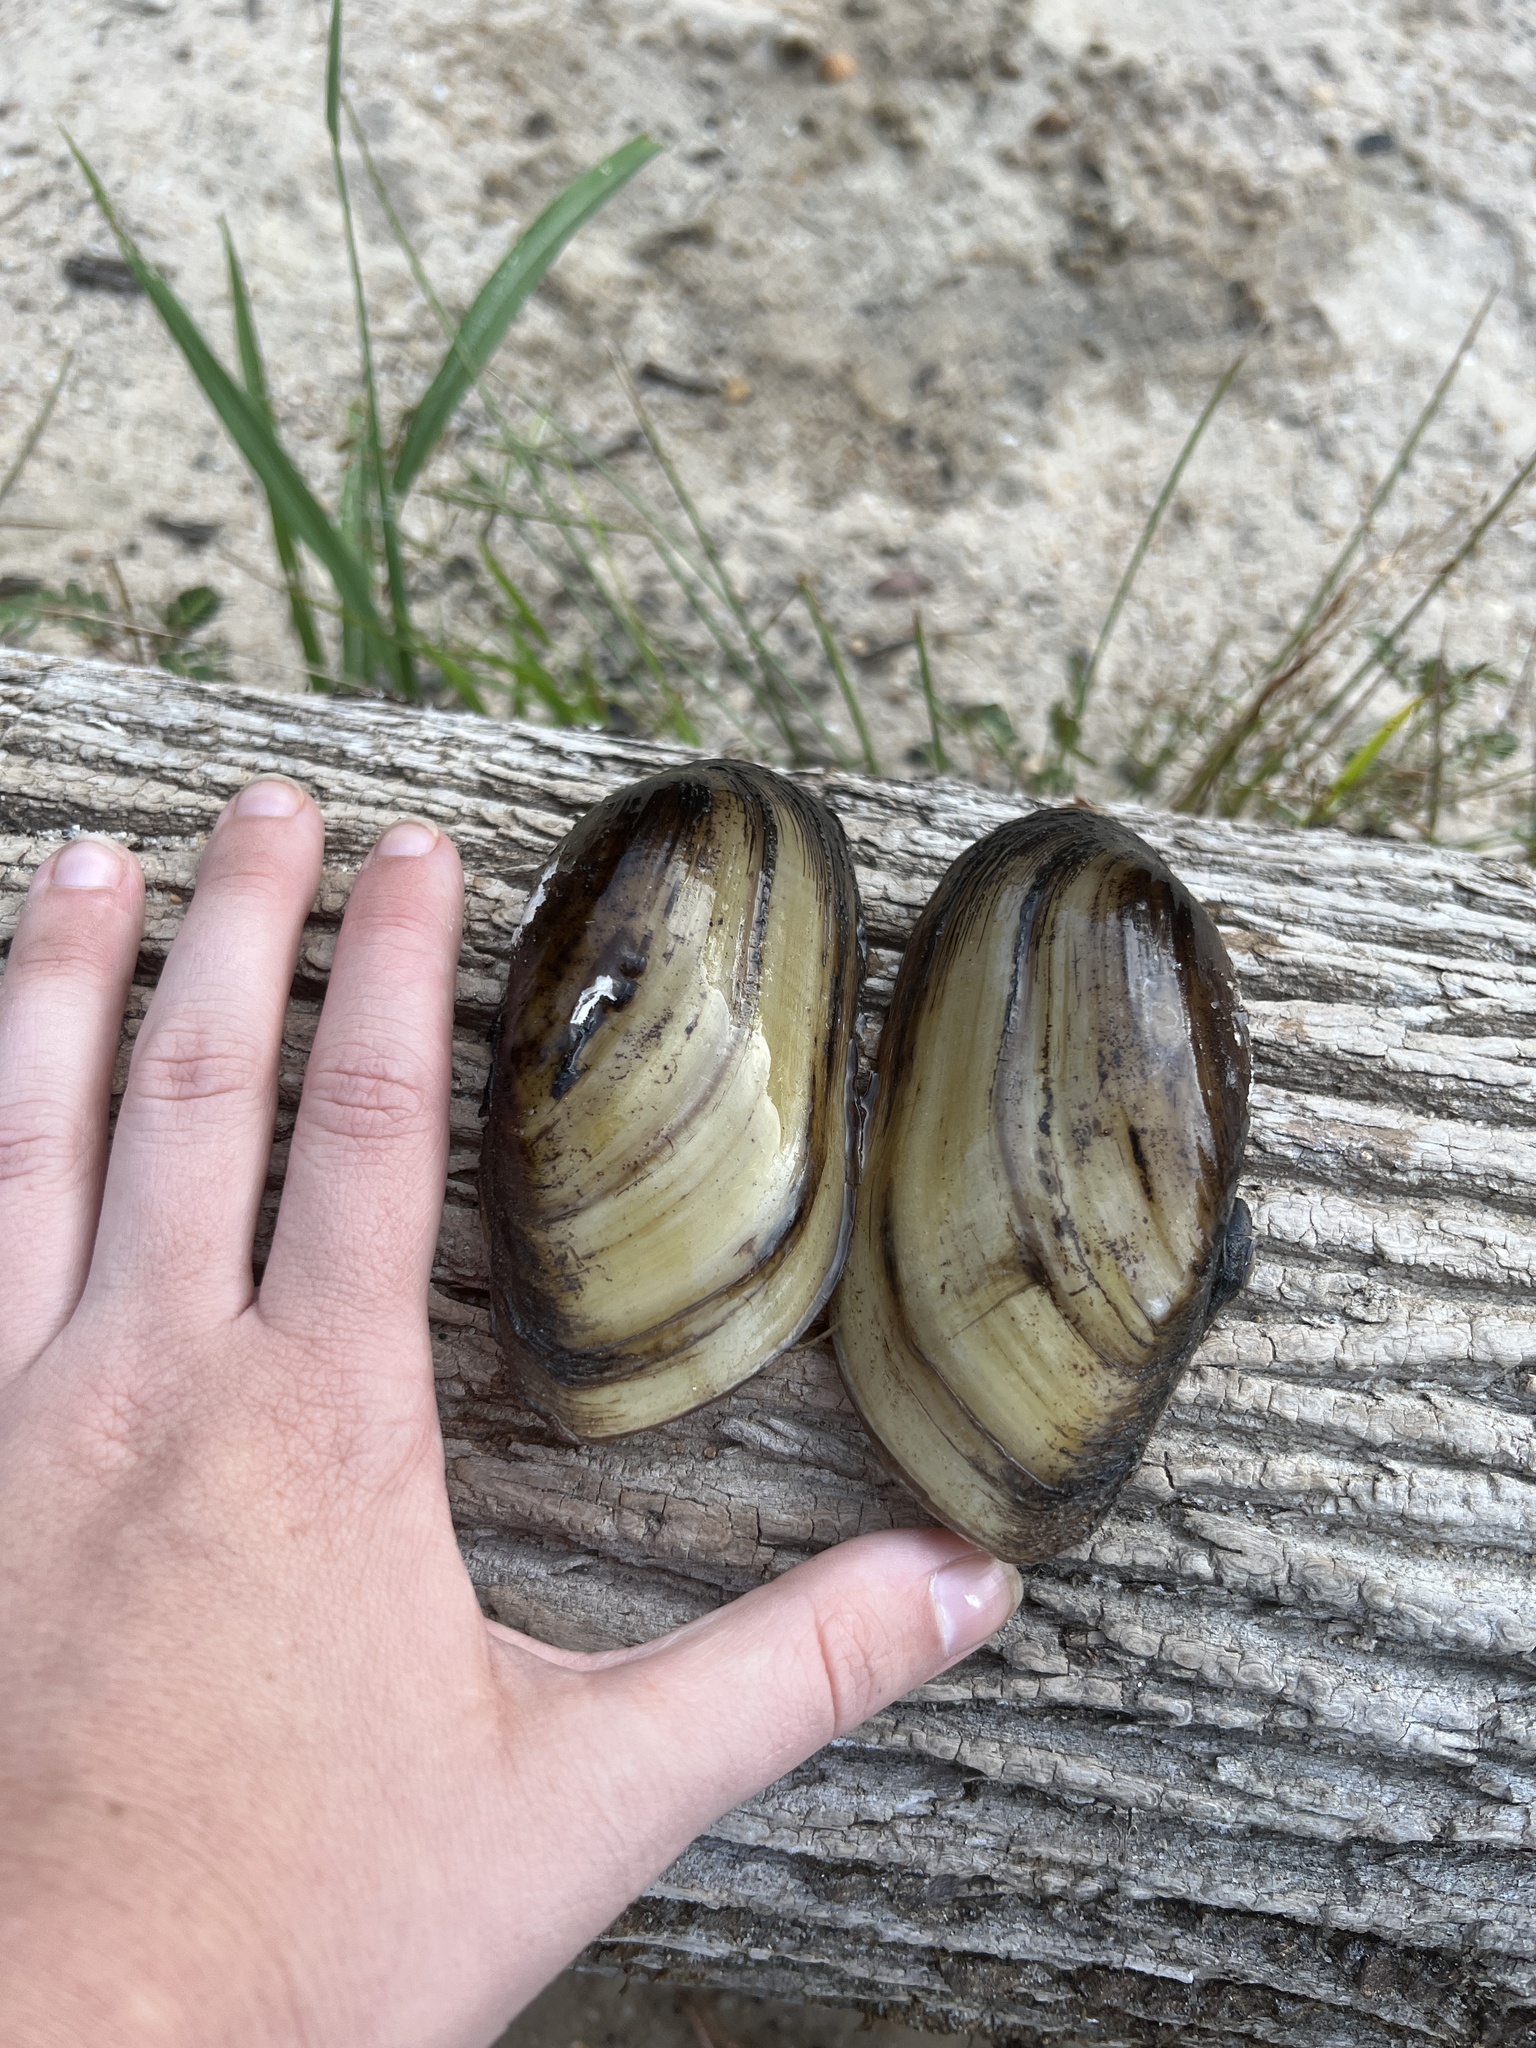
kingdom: Animalia
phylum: Mollusca
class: Bivalvia
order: Unionida
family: Unionidae
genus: Lampsilis
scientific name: Lampsilis teres
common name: Yellow sandshell
